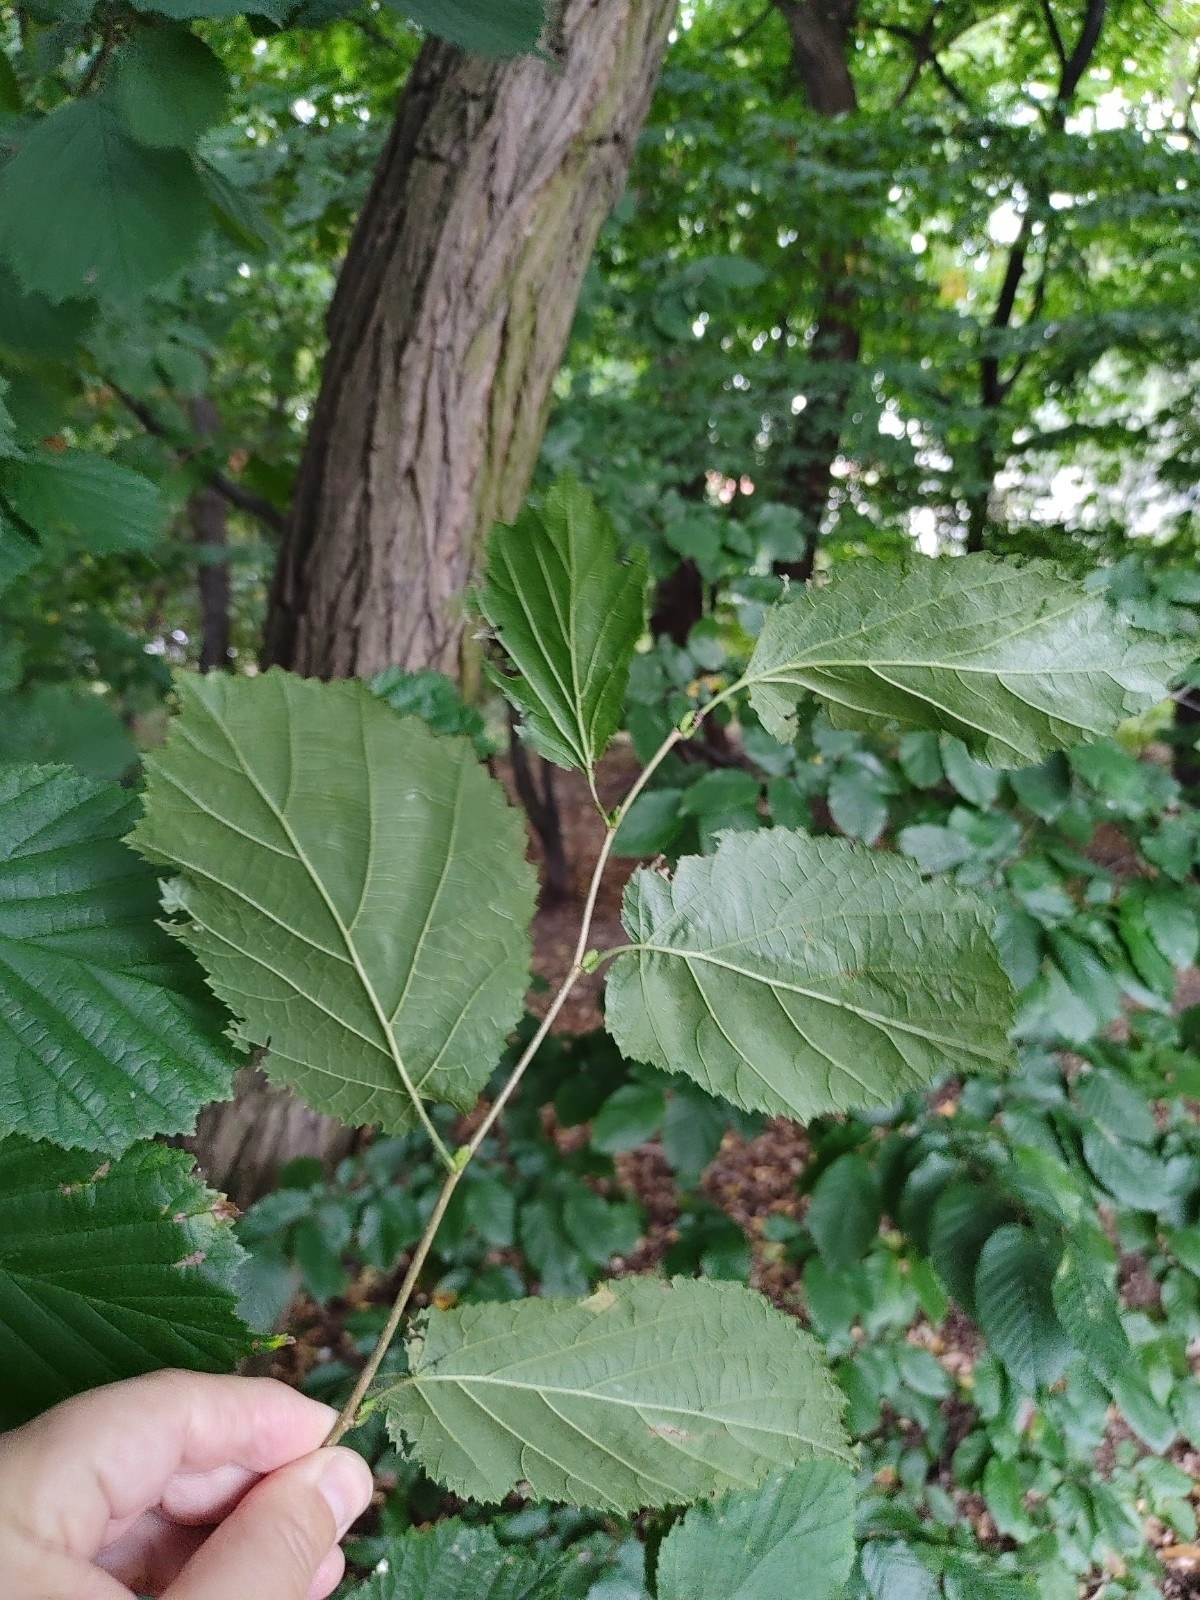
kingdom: Plantae
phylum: Tracheophyta
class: Magnoliopsida
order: Fagales
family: Betulaceae
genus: Corylus
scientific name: Corylus avellana
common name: European hazel
